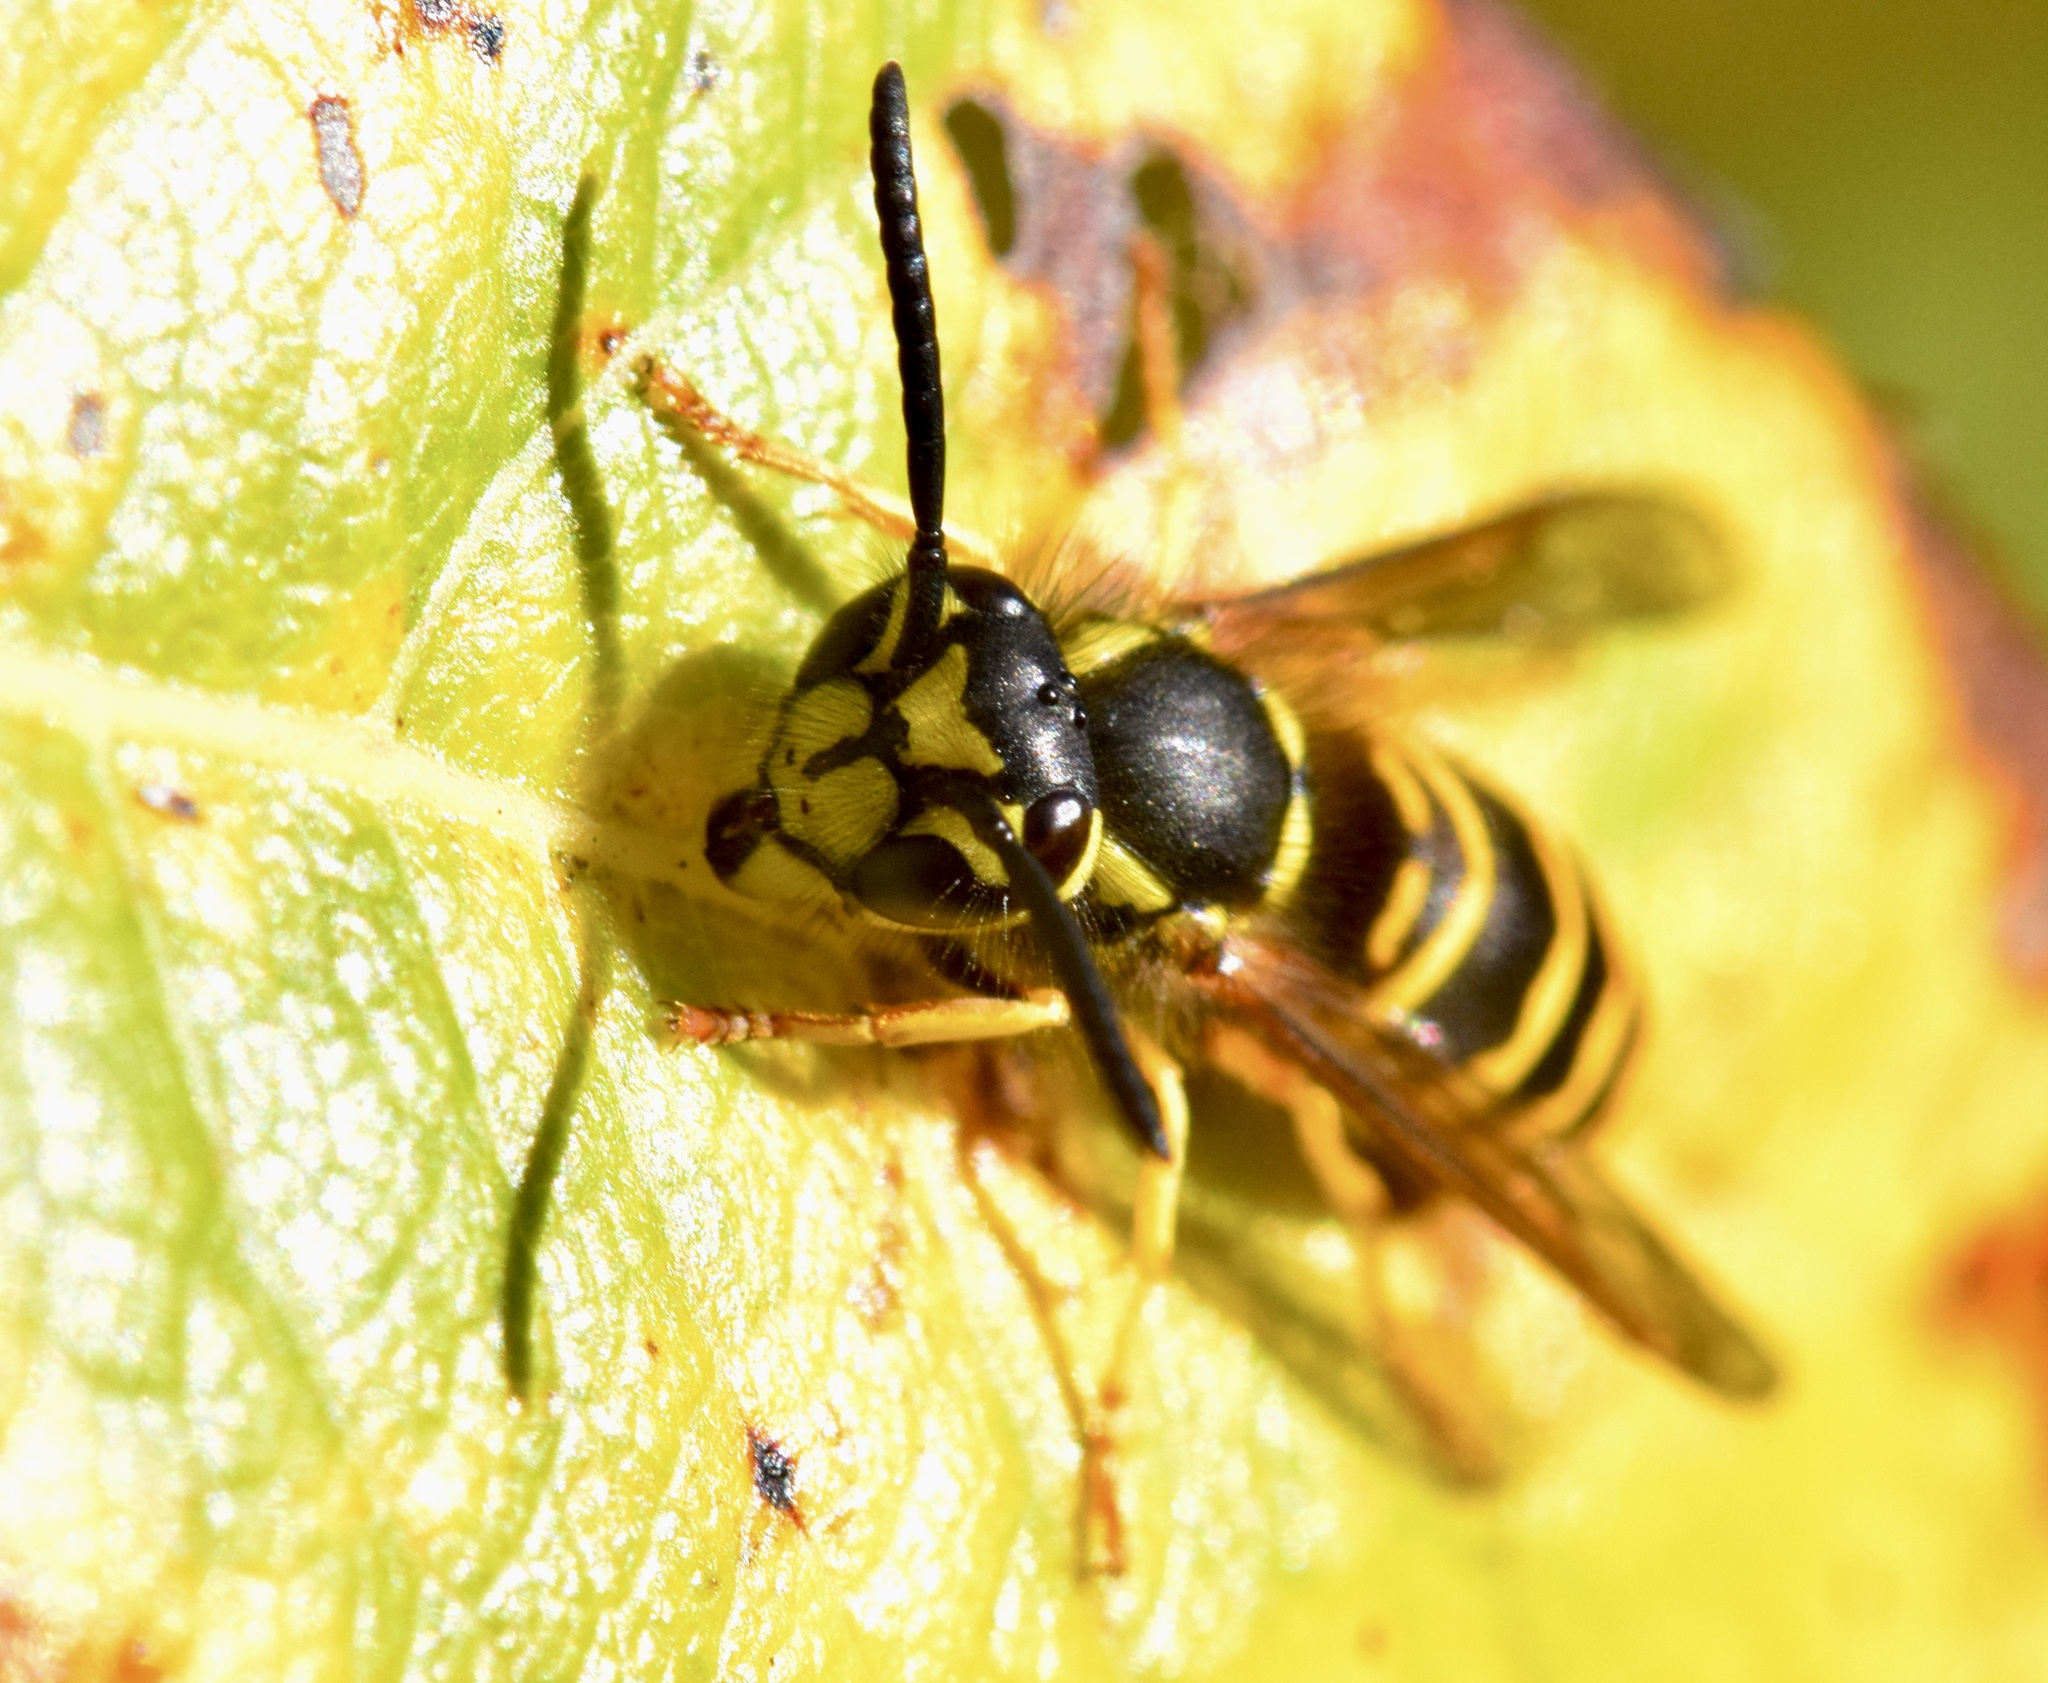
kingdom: Animalia
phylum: Arthropoda
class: Insecta
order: Hymenoptera
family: Vespidae
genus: Vespula
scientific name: Vespula maculifrons
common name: Eastern yellowjacket
